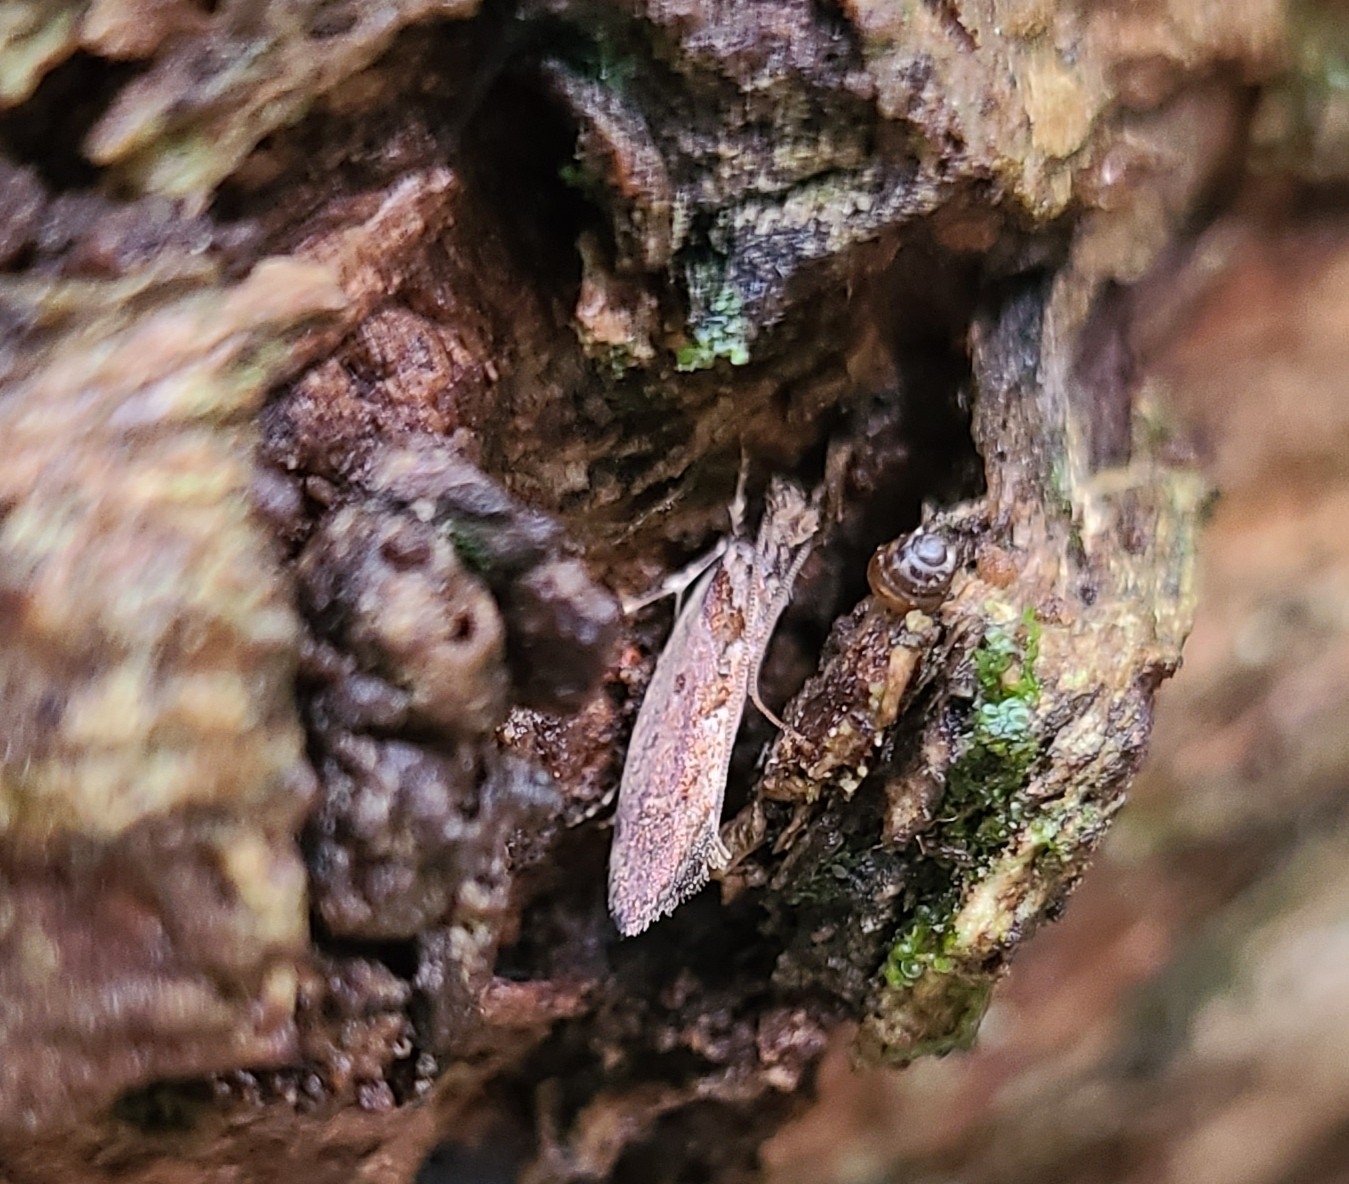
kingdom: Animalia
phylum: Arthropoda
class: Insecta
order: Lepidoptera
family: Tineidae
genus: Erechthias
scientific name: Erechthias capnitis
